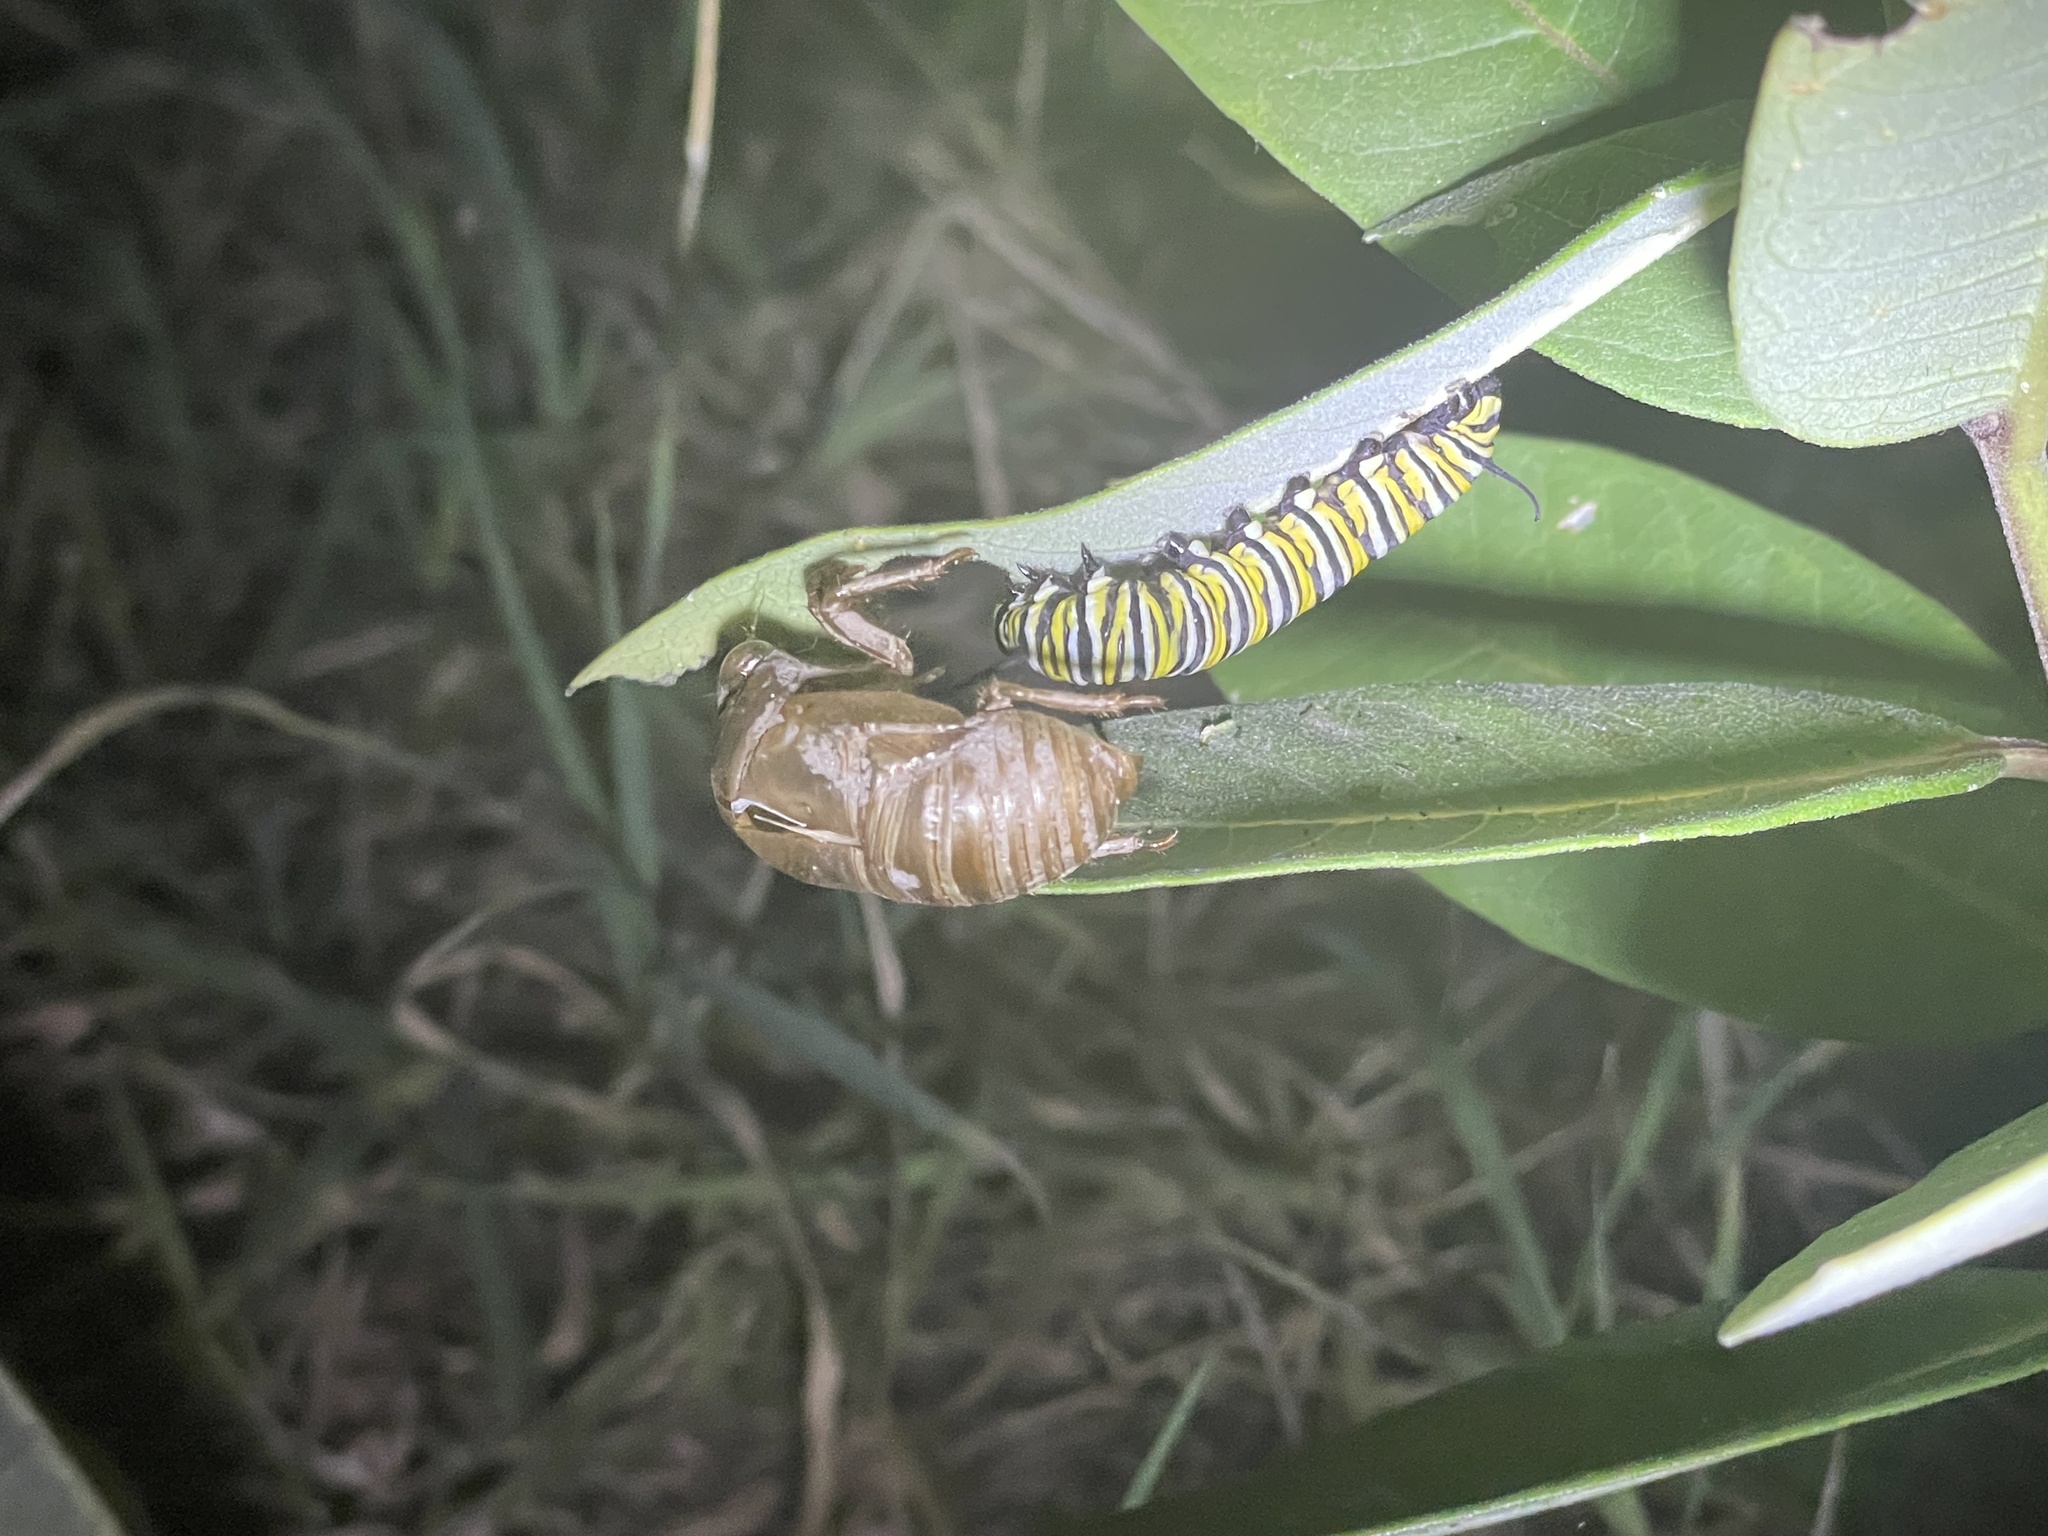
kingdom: Animalia
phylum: Arthropoda
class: Insecta
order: Lepidoptera
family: Nymphalidae
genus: Danaus
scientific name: Danaus plexippus
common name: Monarch
